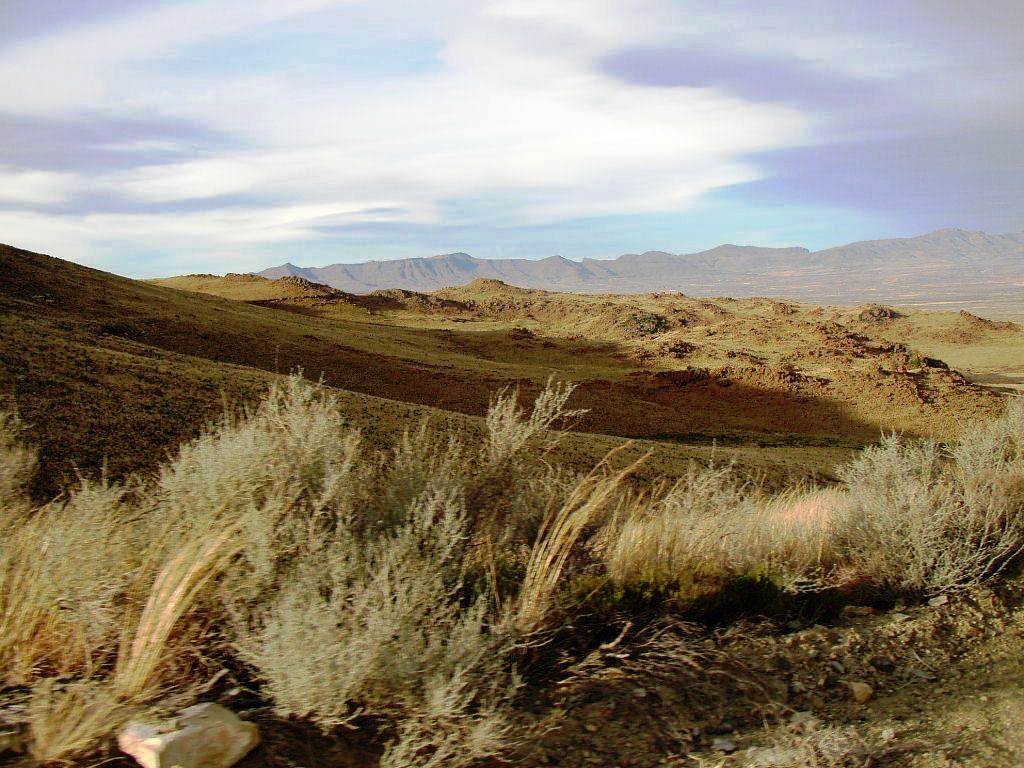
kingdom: Plantae
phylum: Tracheophyta
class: Magnoliopsida
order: Asterales
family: Asteraceae
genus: Dicerothamnus
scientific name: Dicerothamnus rhinocerotis
